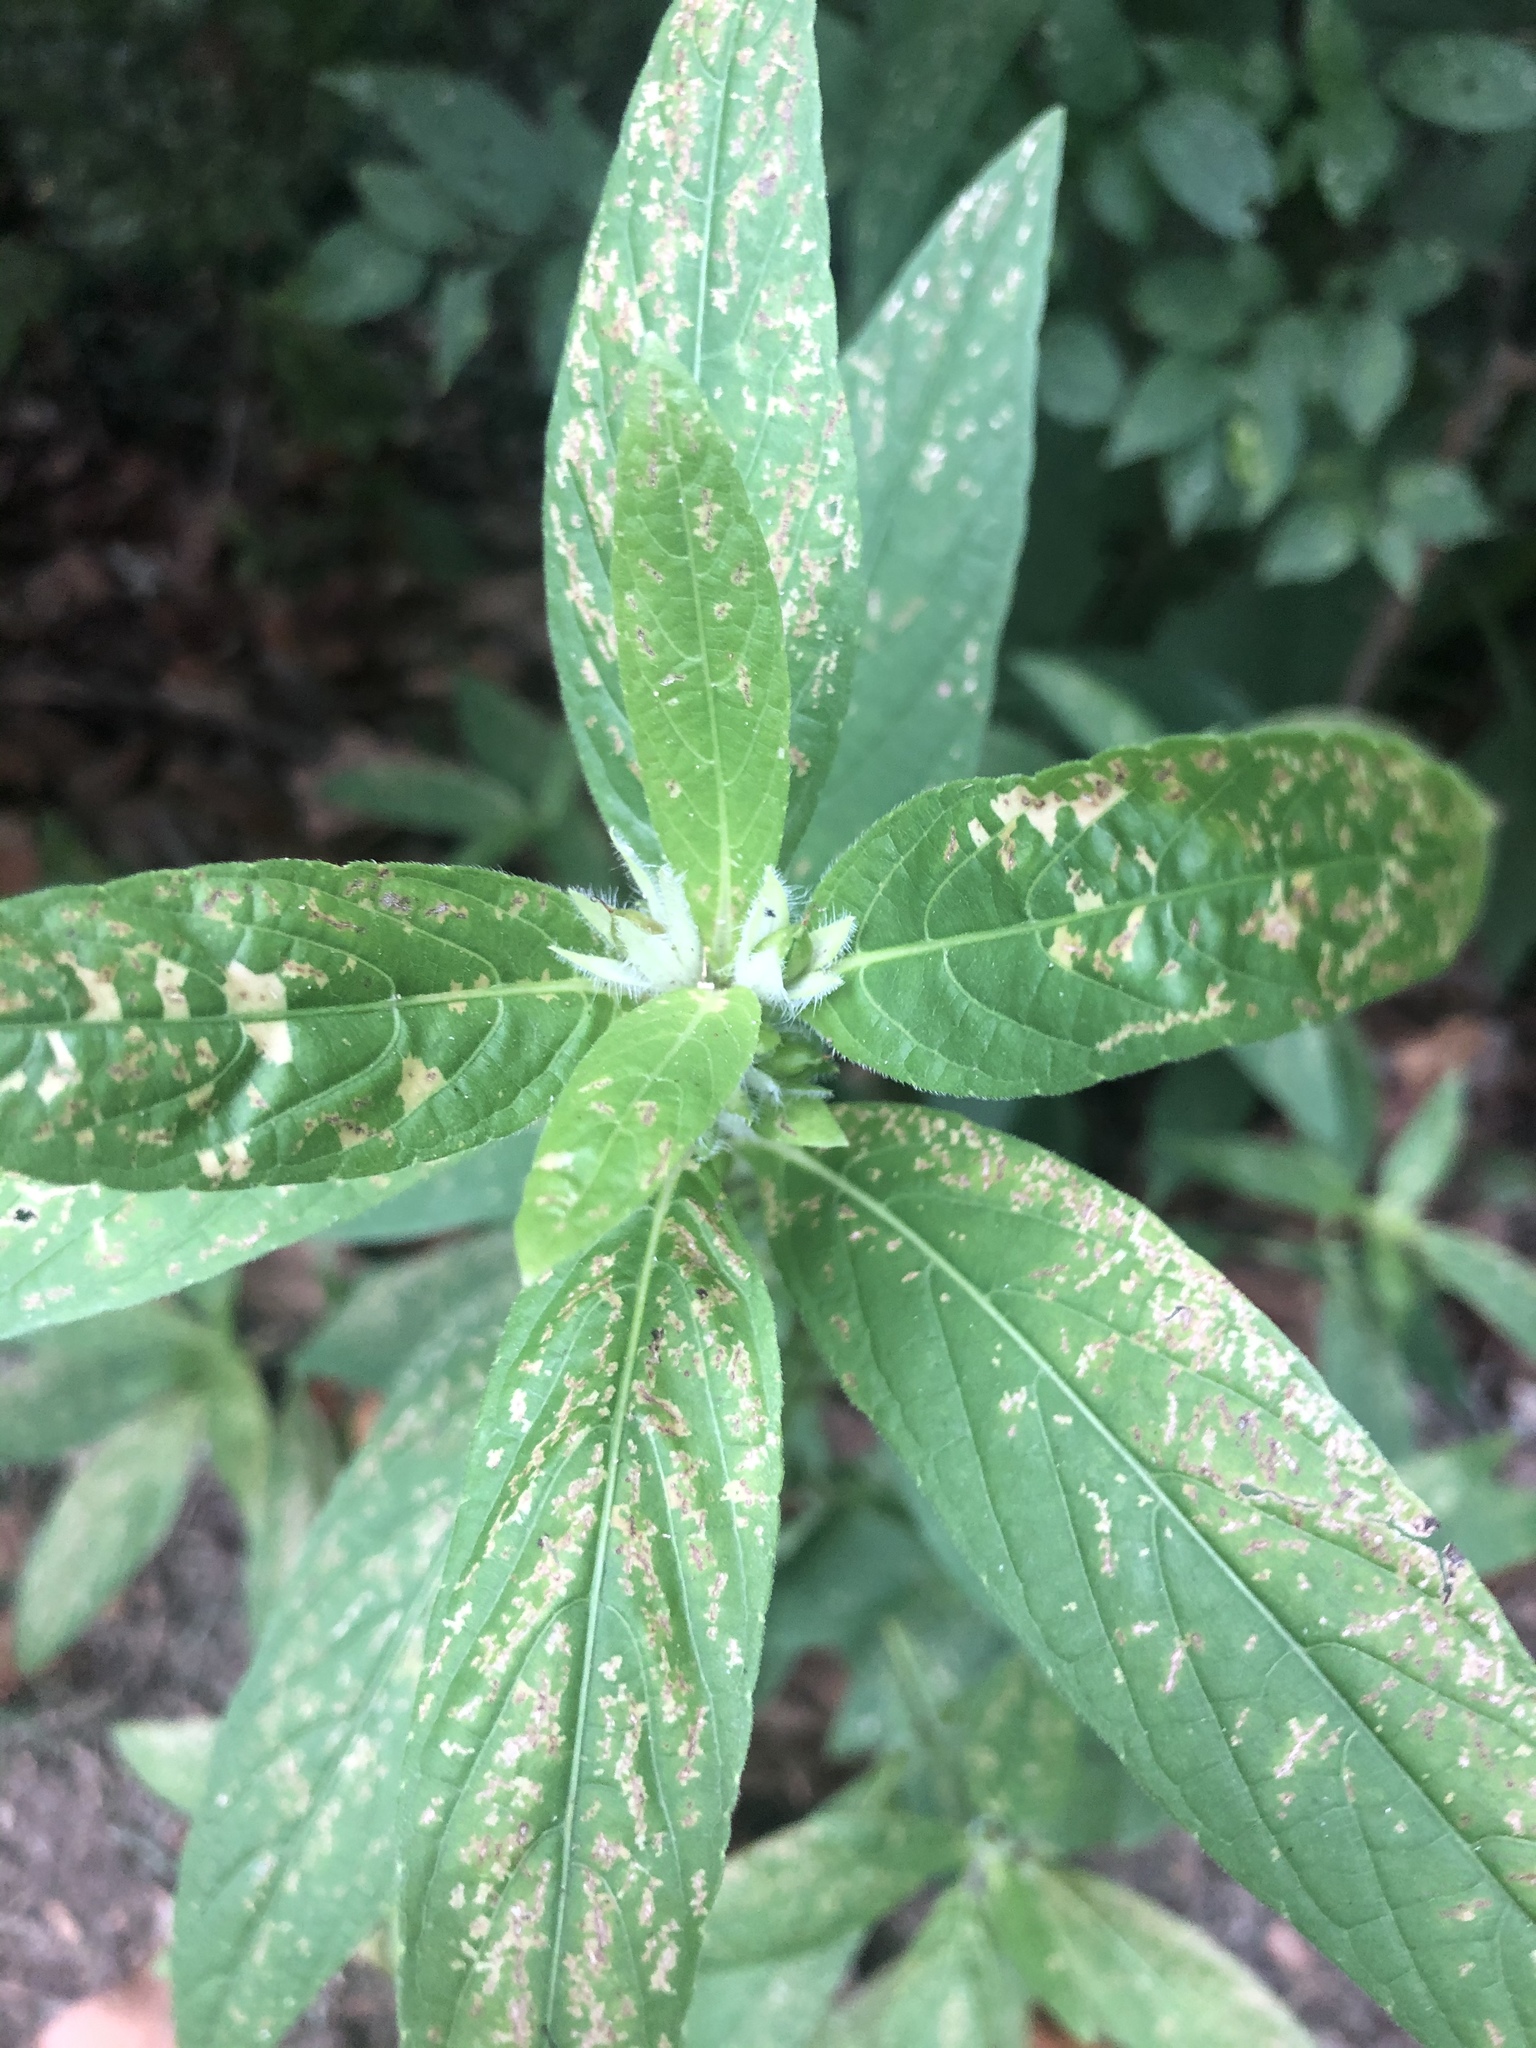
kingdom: Plantae
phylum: Tracheophyta
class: Magnoliopsida
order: Lamiales
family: Acanthaceae
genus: Ruellia
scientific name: Ruellia strepens
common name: Limestone wild petunia
